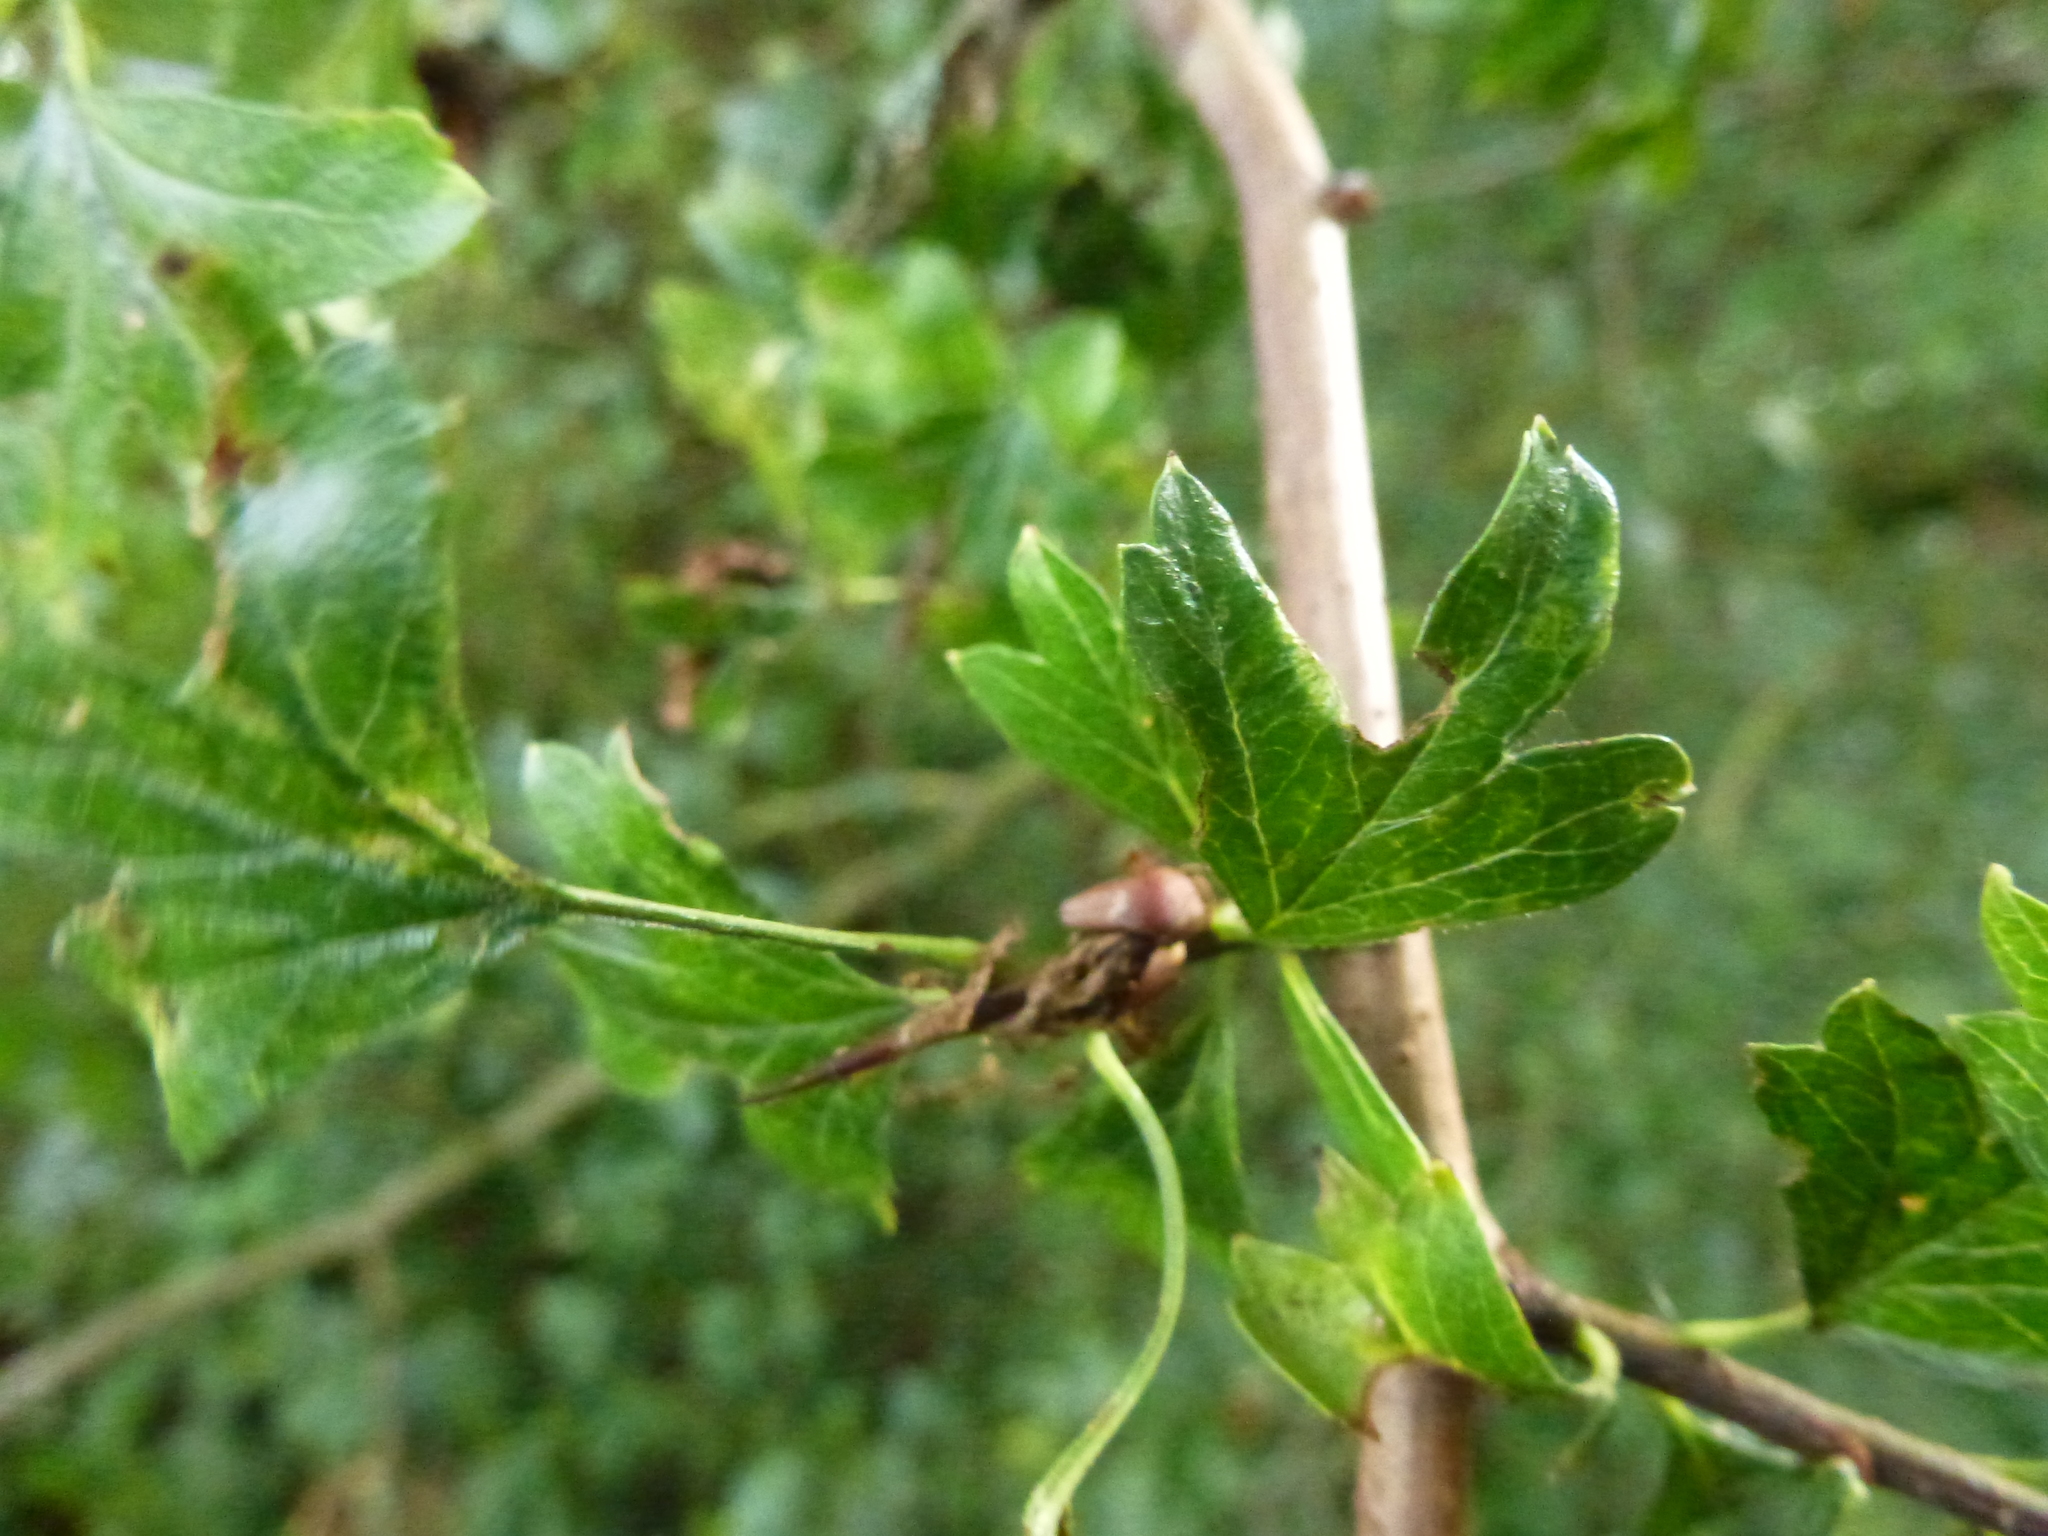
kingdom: Animalia
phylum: Arthropoda
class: Arachnida
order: Trombidiformes
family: Eriophyidae
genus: Phyllocoptes
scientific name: Phyllocoptes goniothorax
